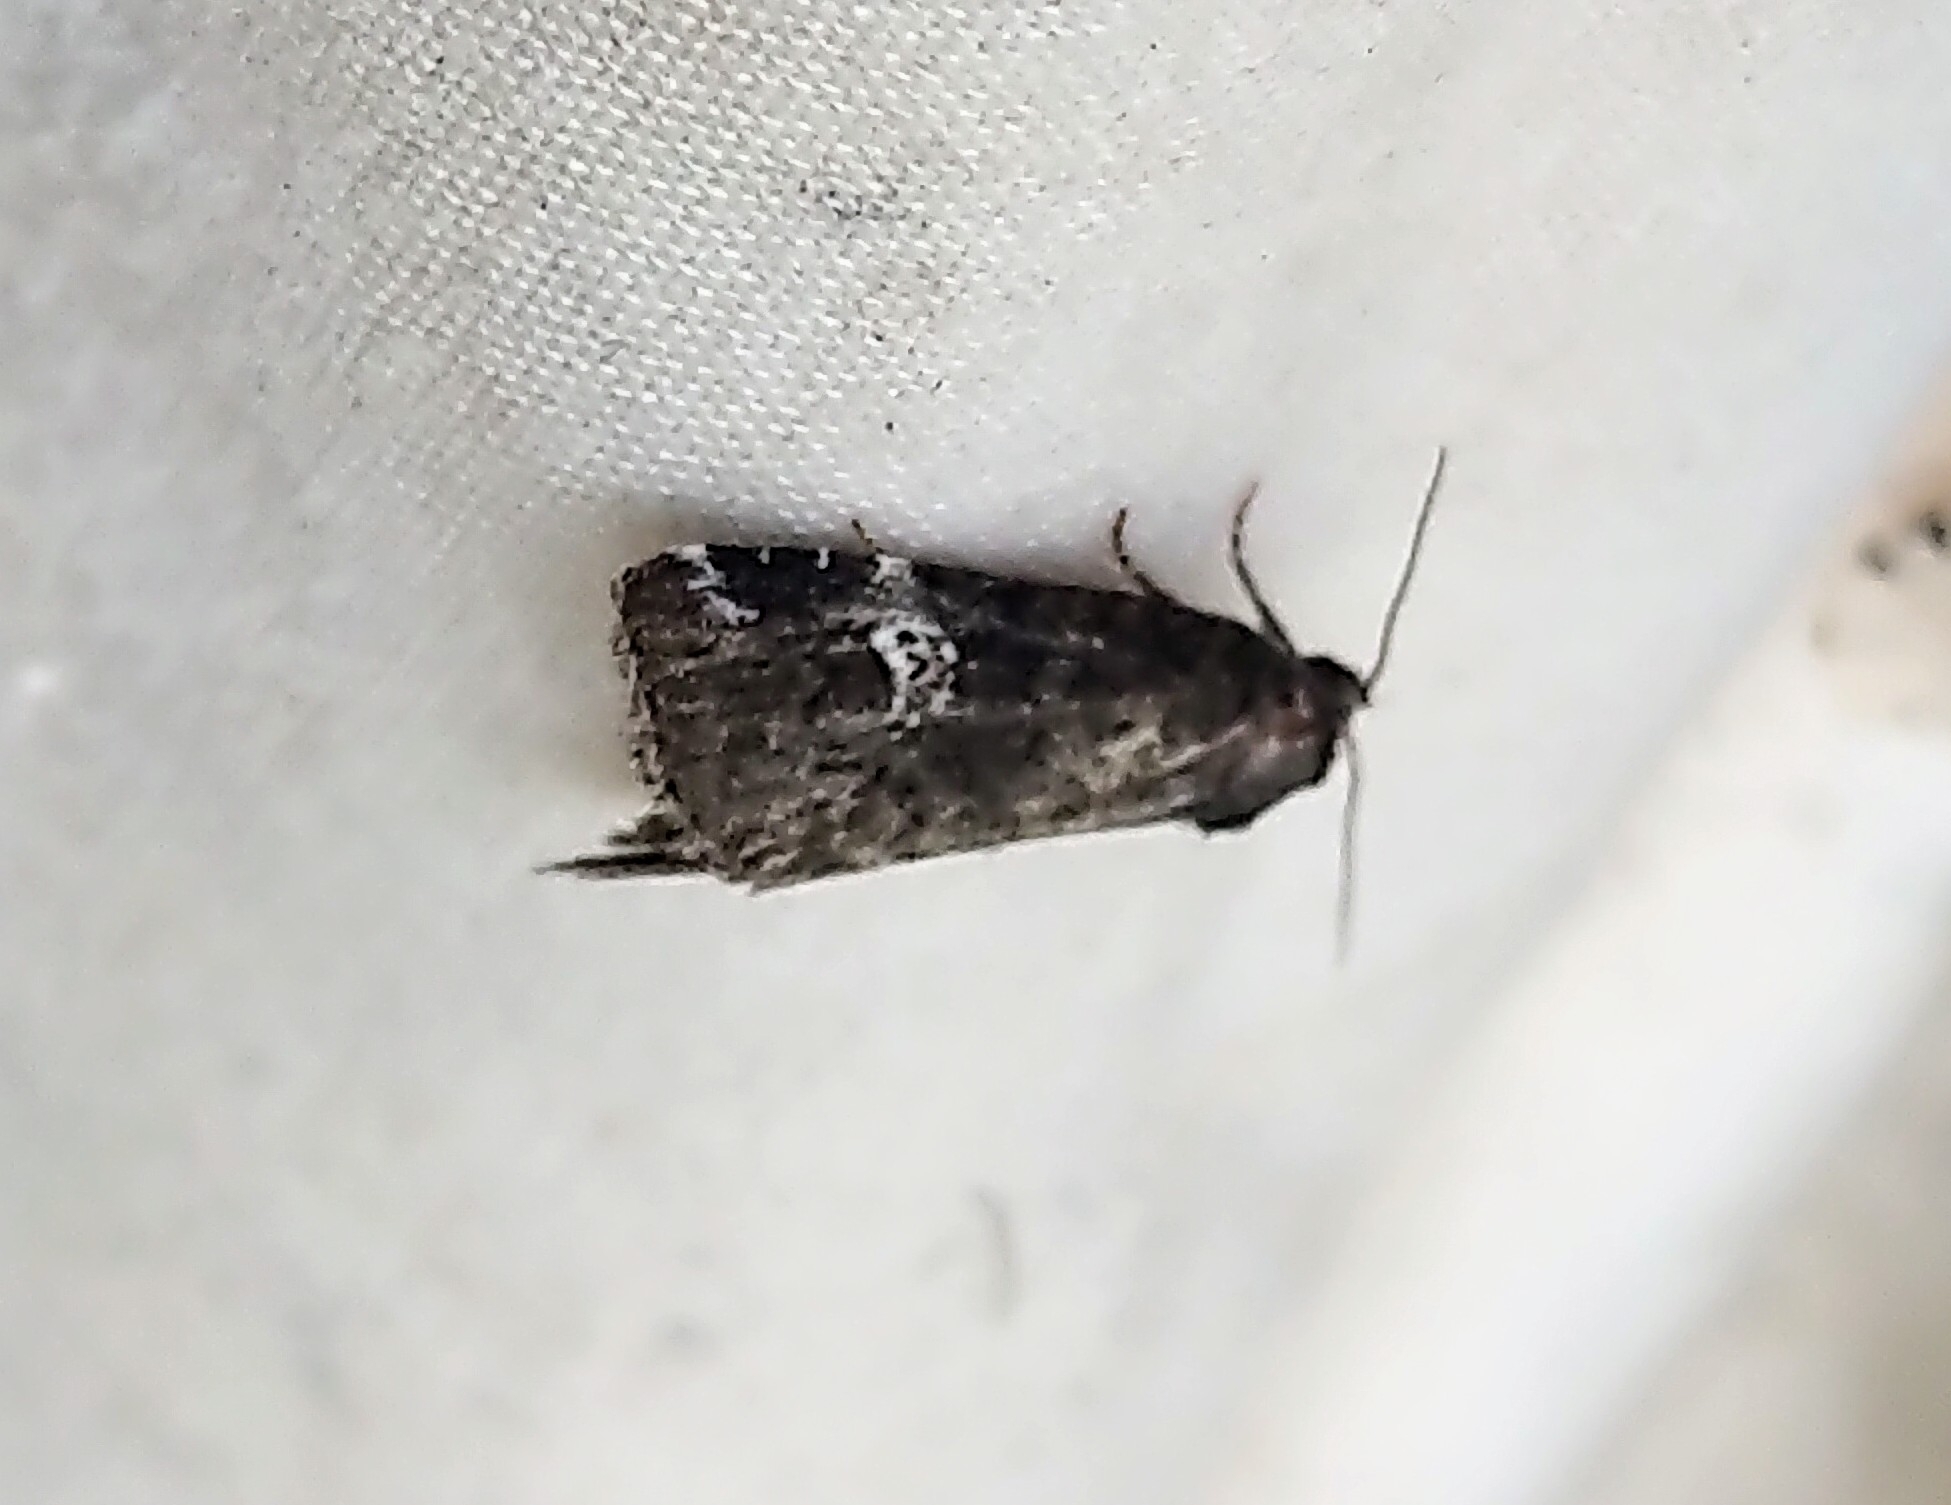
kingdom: Animalia
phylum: Arthropoda
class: Insecta
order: Lepidoptera
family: Noctuidae
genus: Anterastria
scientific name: Anterastria teratophora
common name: Gray marvel moth
